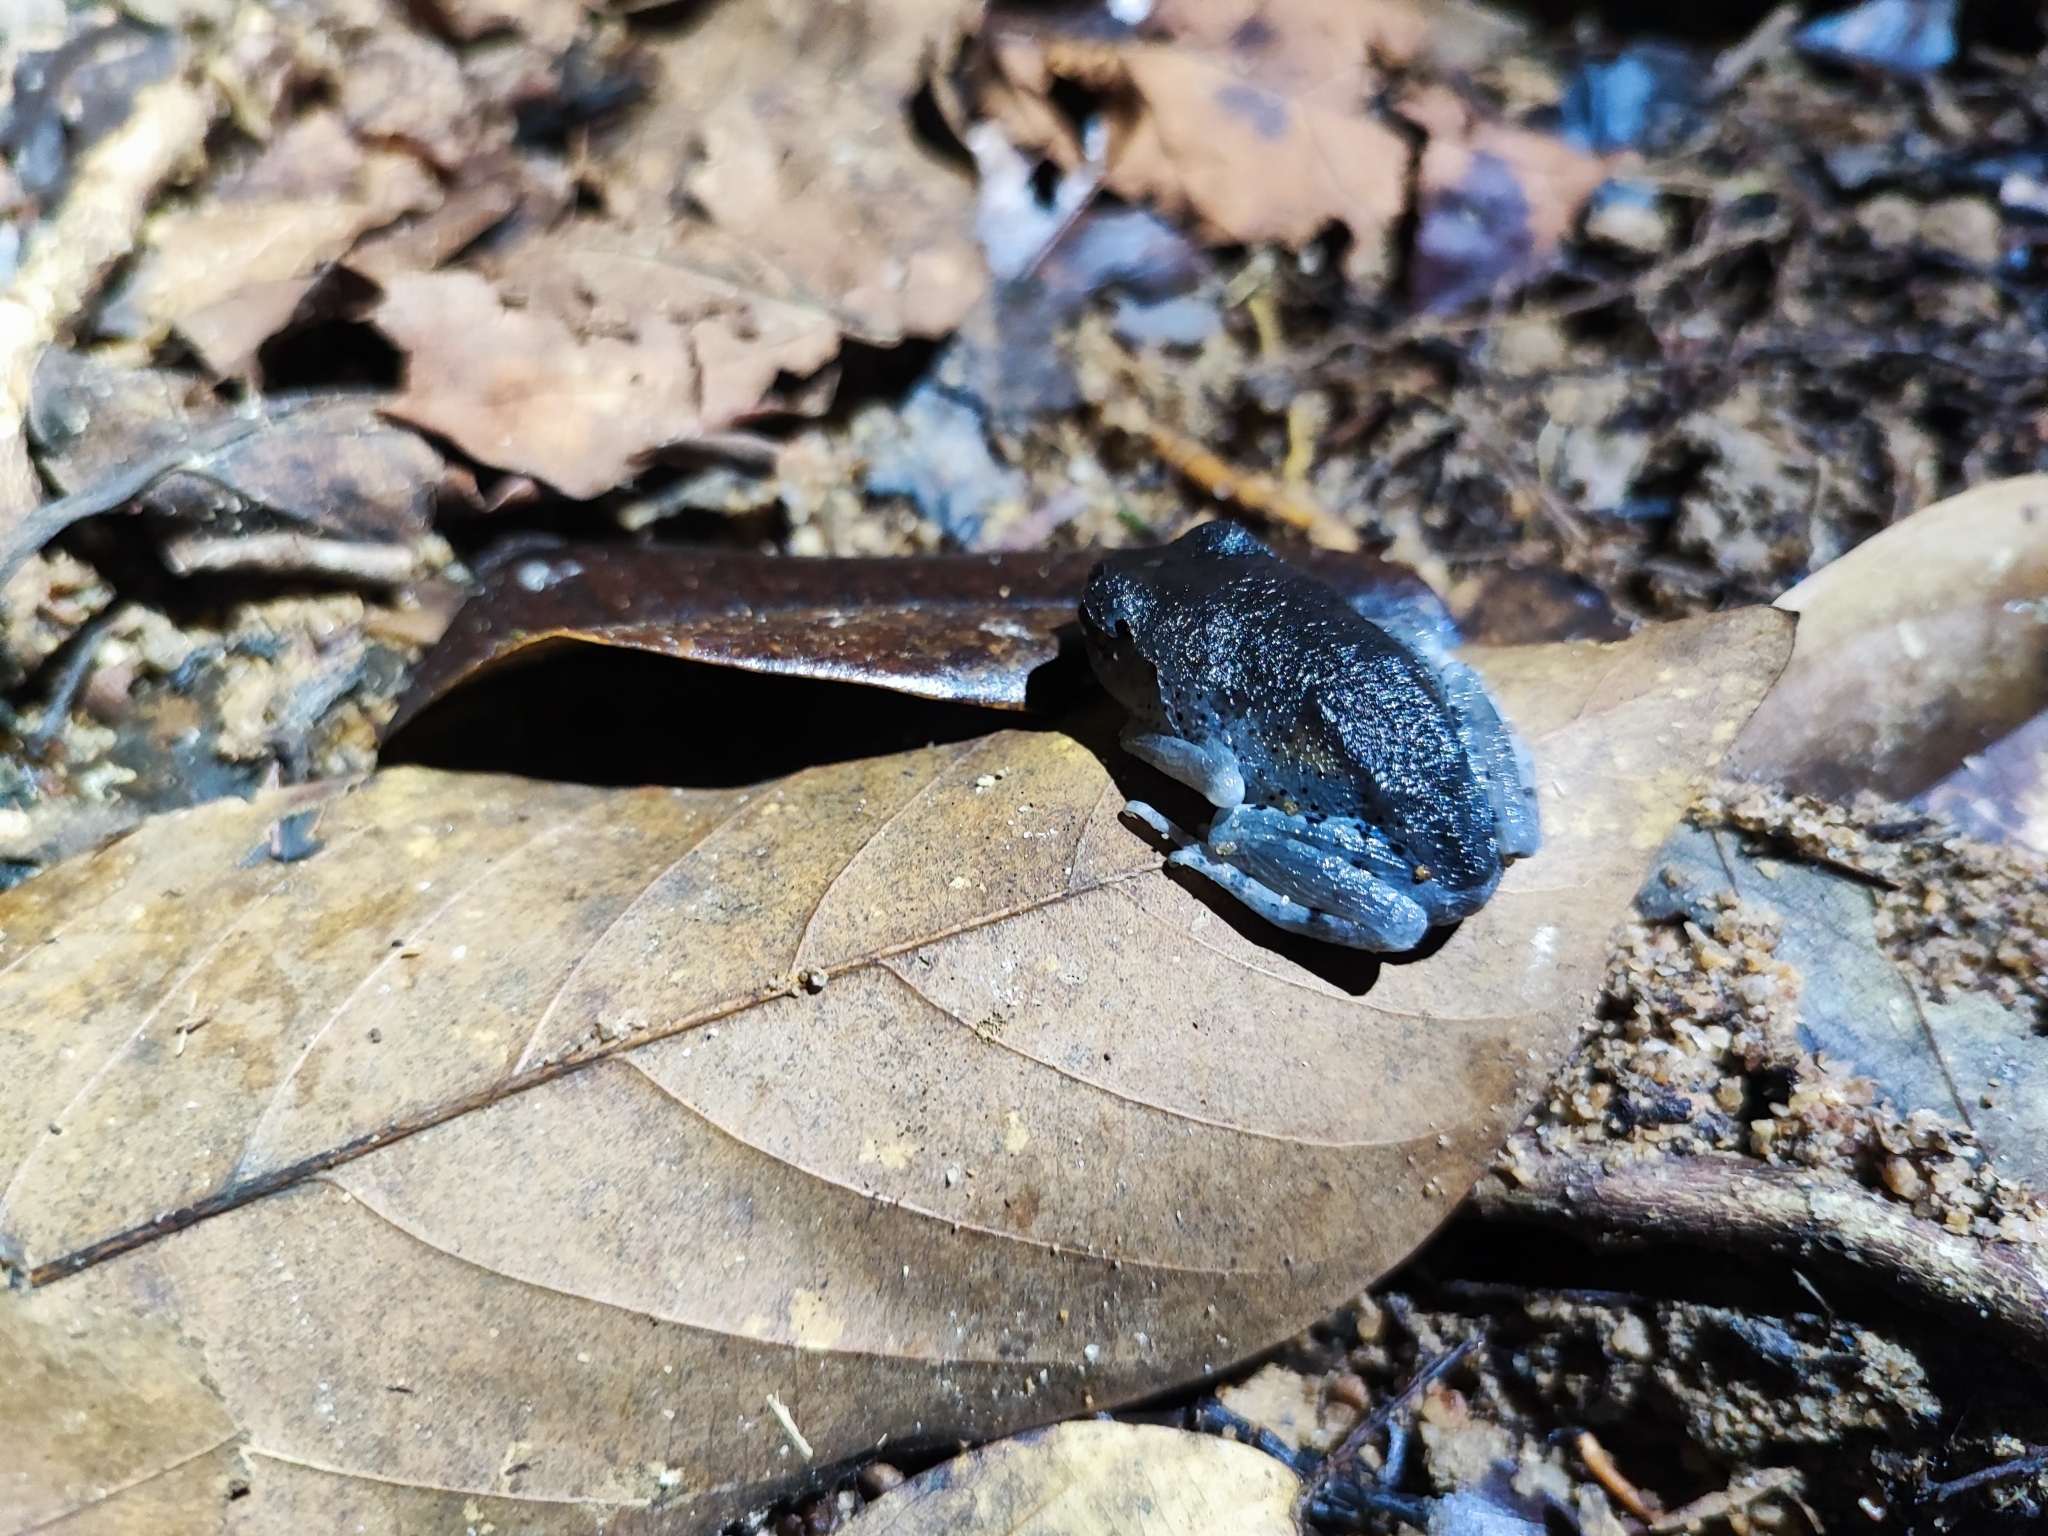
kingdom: Animalia
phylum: Chordata
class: Amphibia
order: Anura
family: Megophryidae
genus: Leptobrachium
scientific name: Leptobrachium smithi
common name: Smith's litter frog
